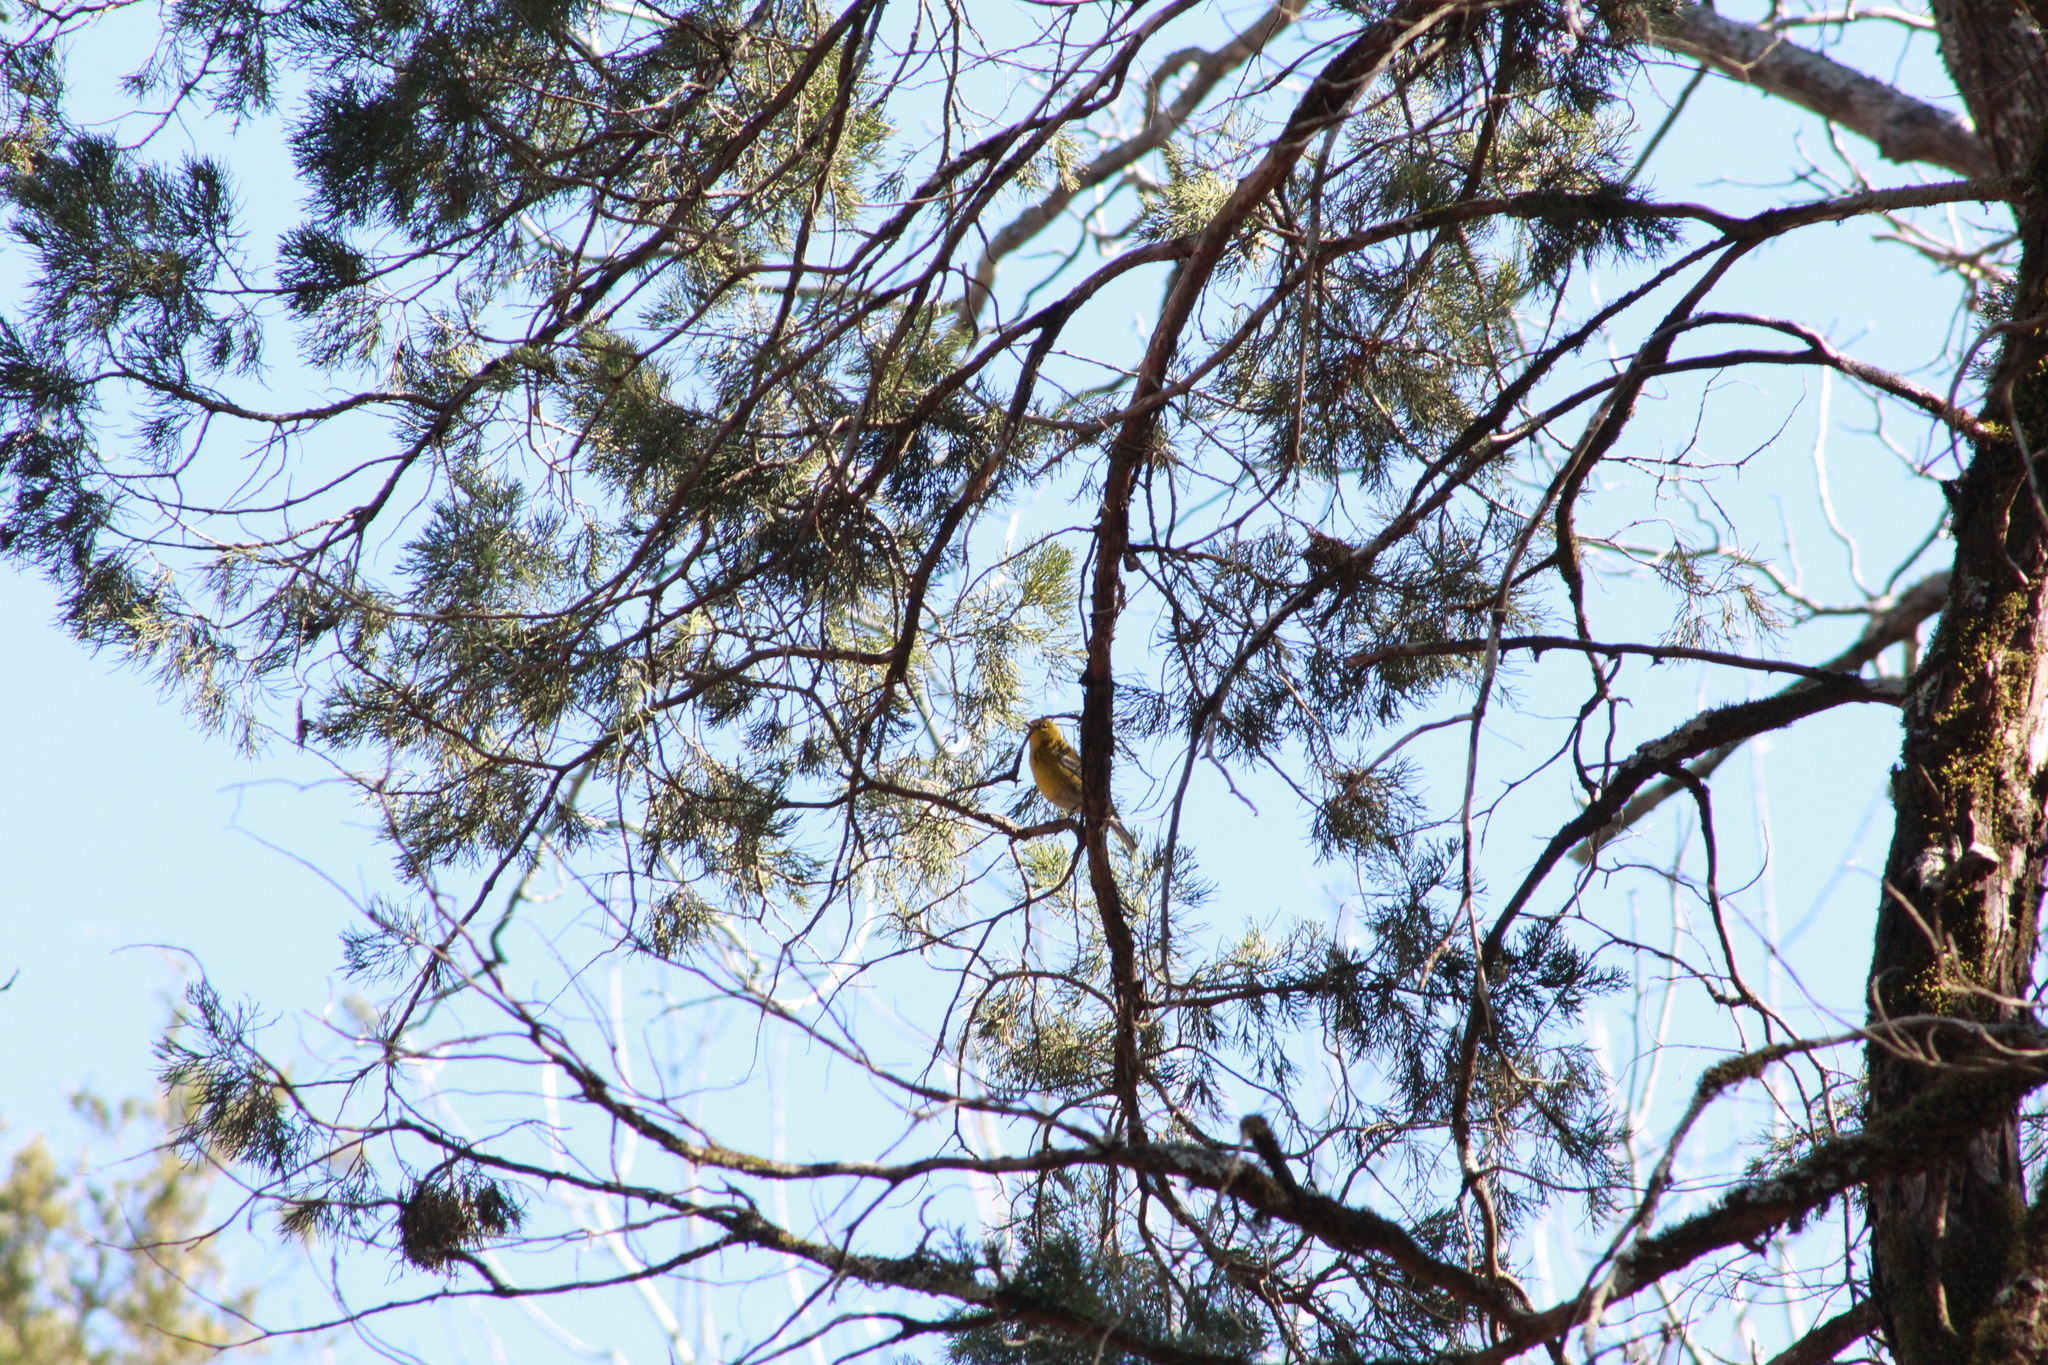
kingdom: Animalia
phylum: Chordata
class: Aves
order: Passeriformes
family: Parulidae
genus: Setophaga
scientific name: Setophaga pinus
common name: Pine warbler
